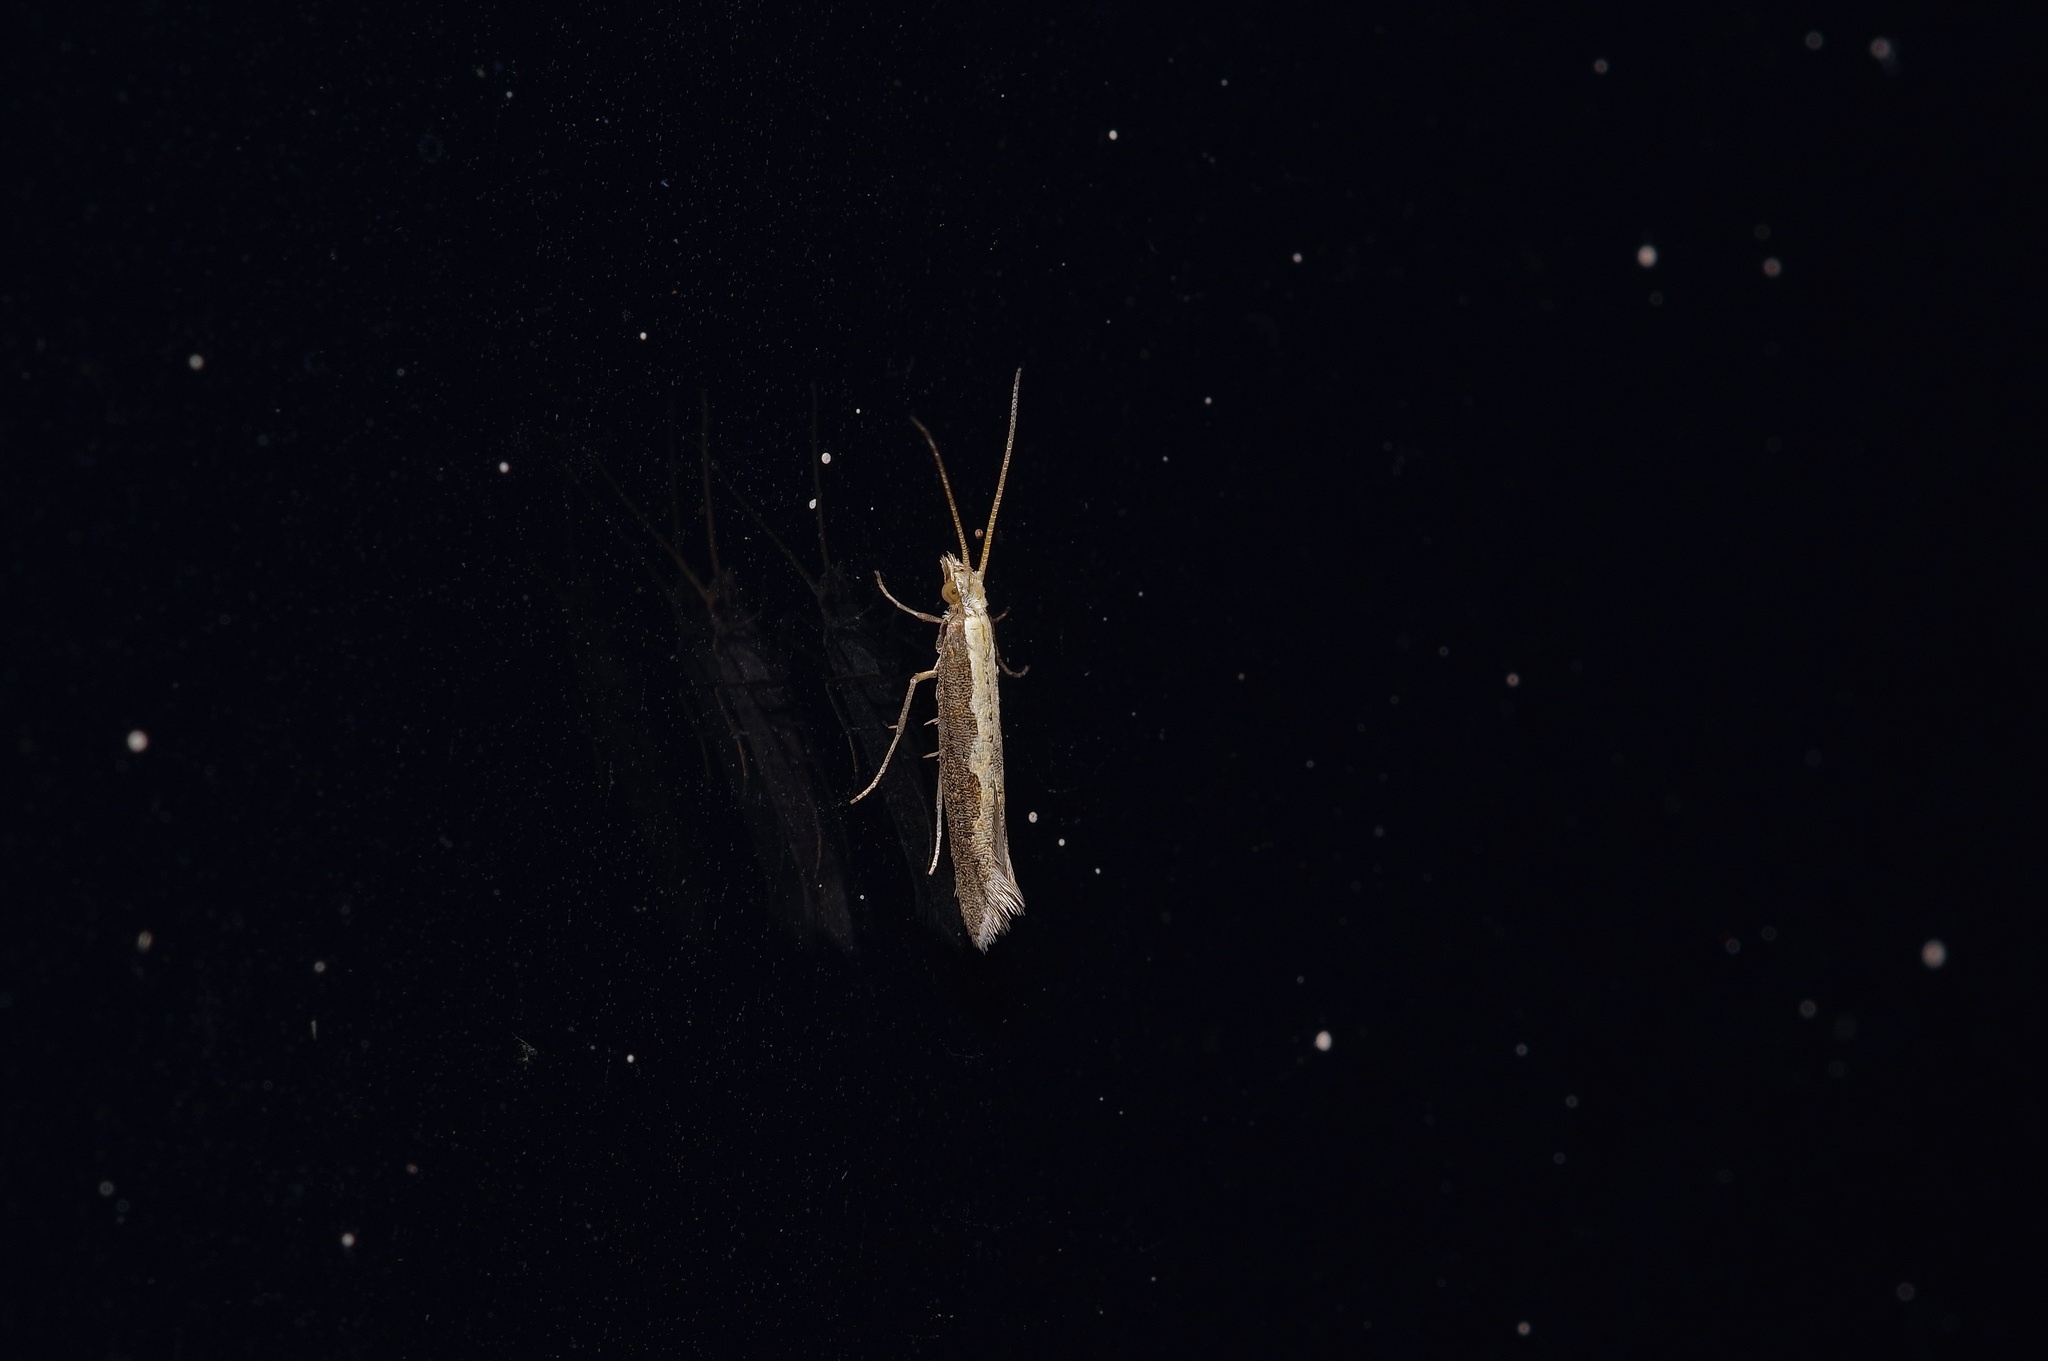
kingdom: Animalia
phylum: Arthropoda
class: Insecta
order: Lepidoptera
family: Plutellidae
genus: Plutella
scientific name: Plutella xylostella
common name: Diamond-back moth
